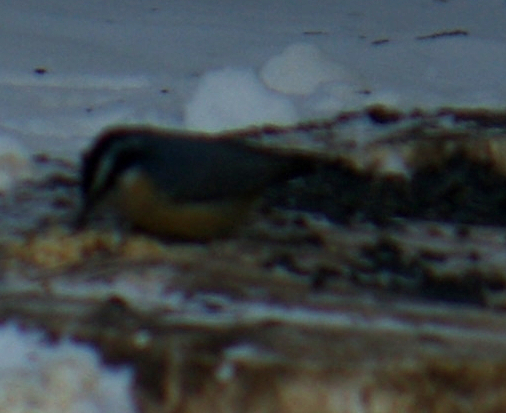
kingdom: Animalia
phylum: Chordata
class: Aves
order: Passeriformes
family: Sittidae
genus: Sitta
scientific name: Sitta canadensis
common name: Red-breasted nuthatch
